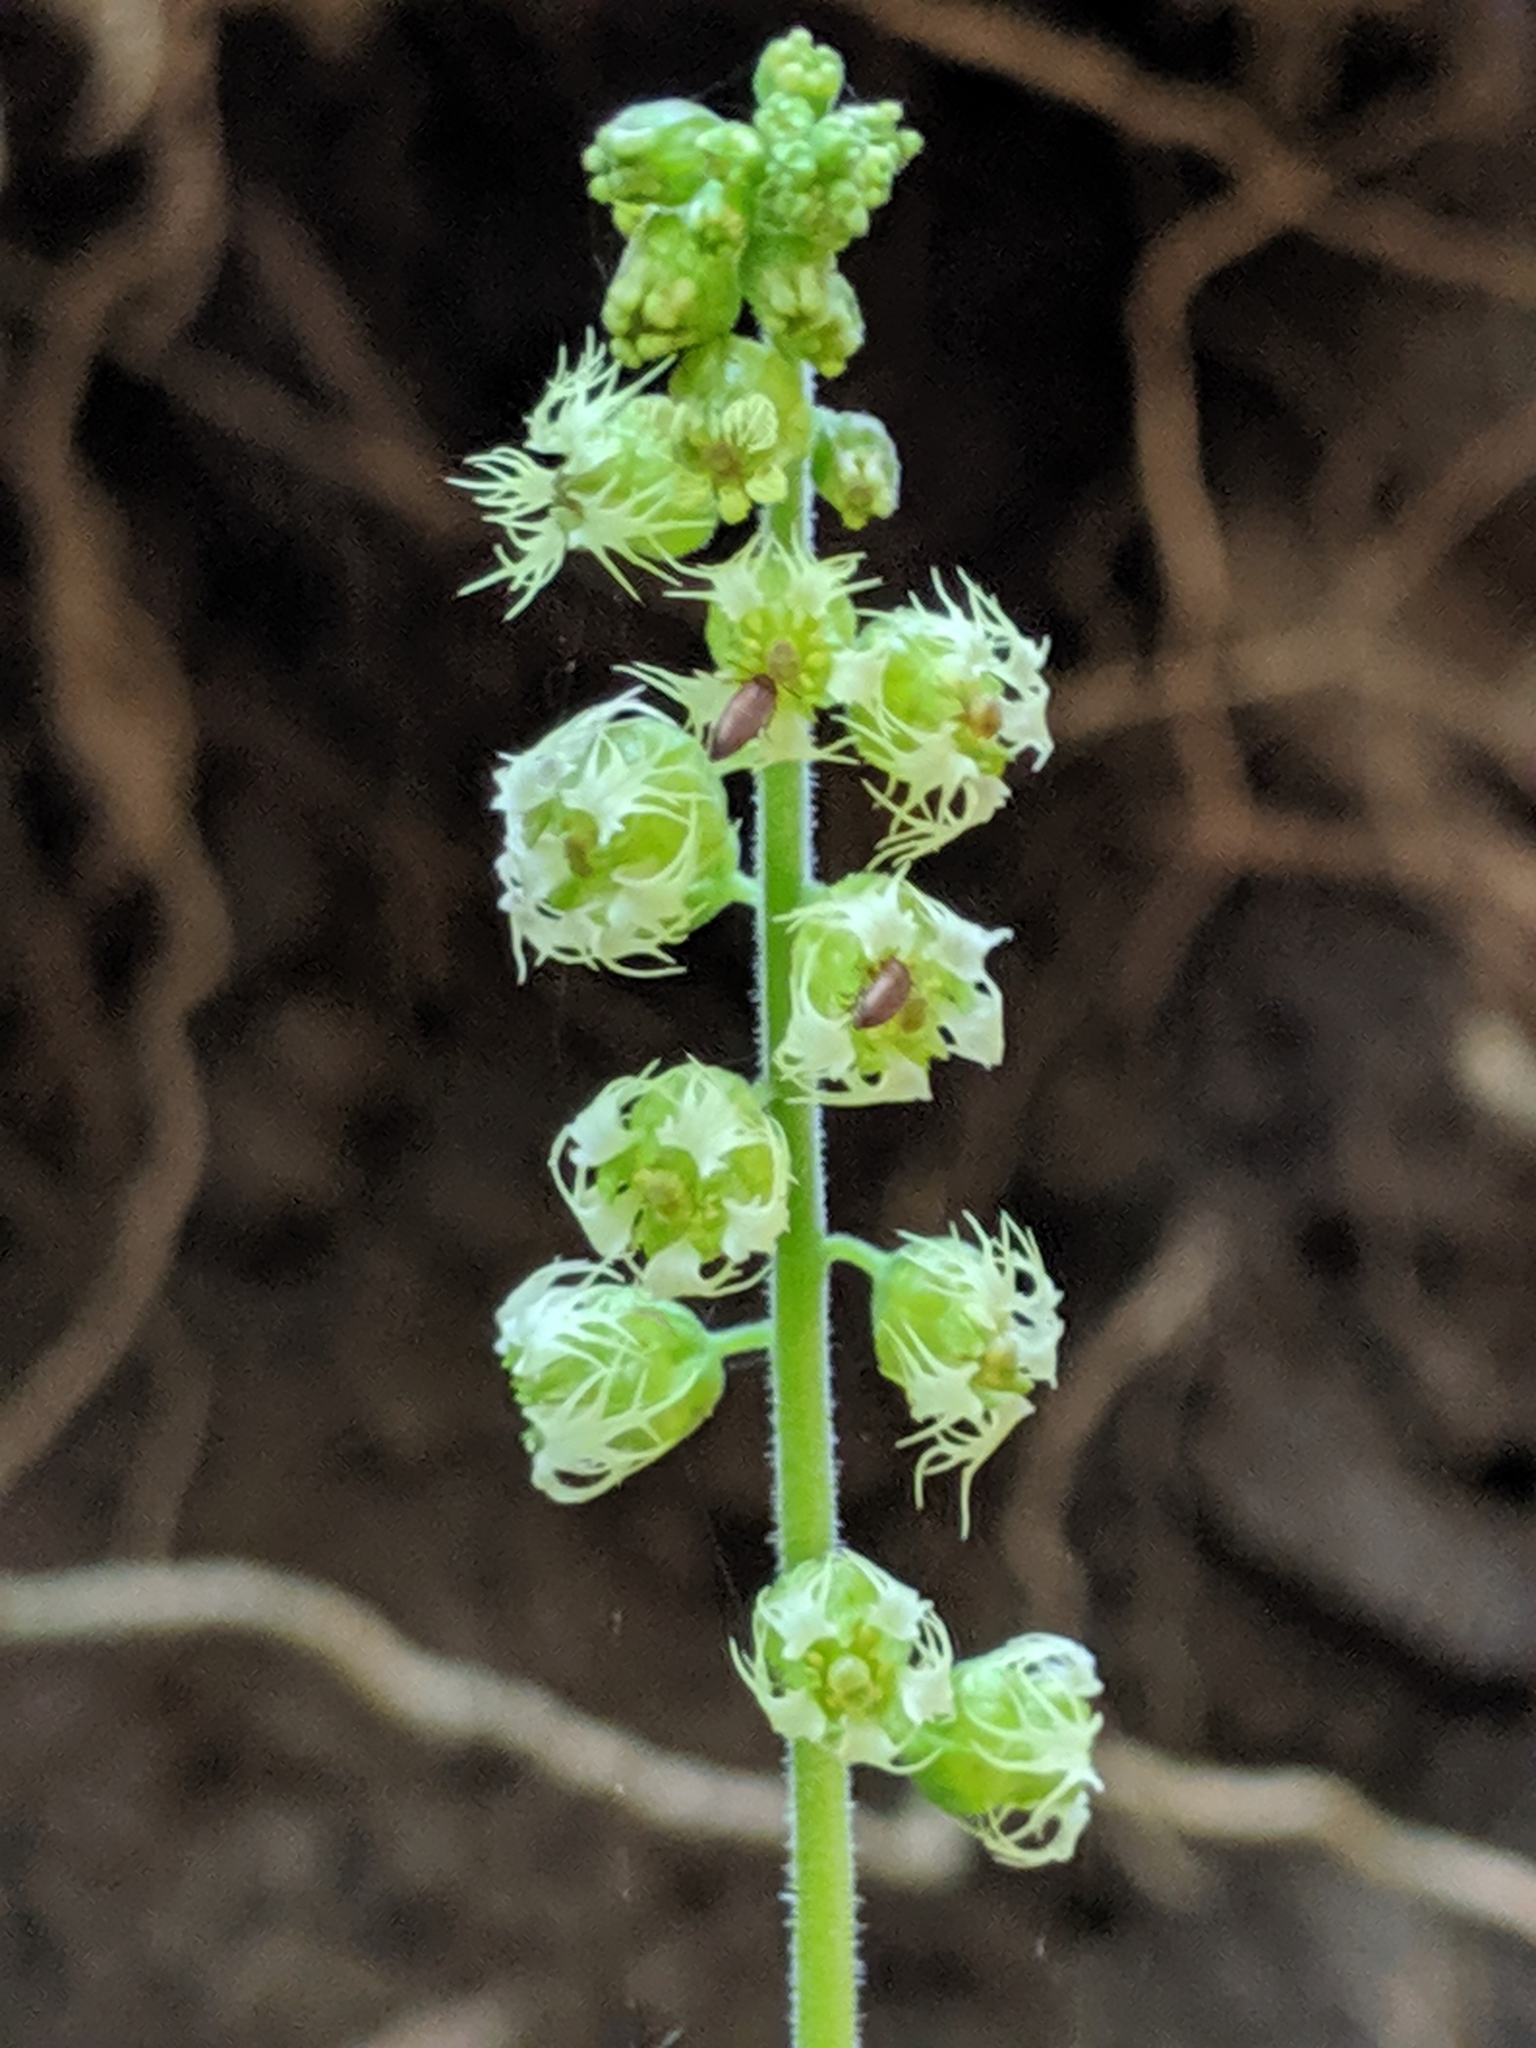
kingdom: Plantae
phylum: Tracheophyta
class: Magnoliopsida
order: Saxifragales
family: Saxifragaceae
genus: Tellima
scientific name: Tellima grandiflora
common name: Fringecups
